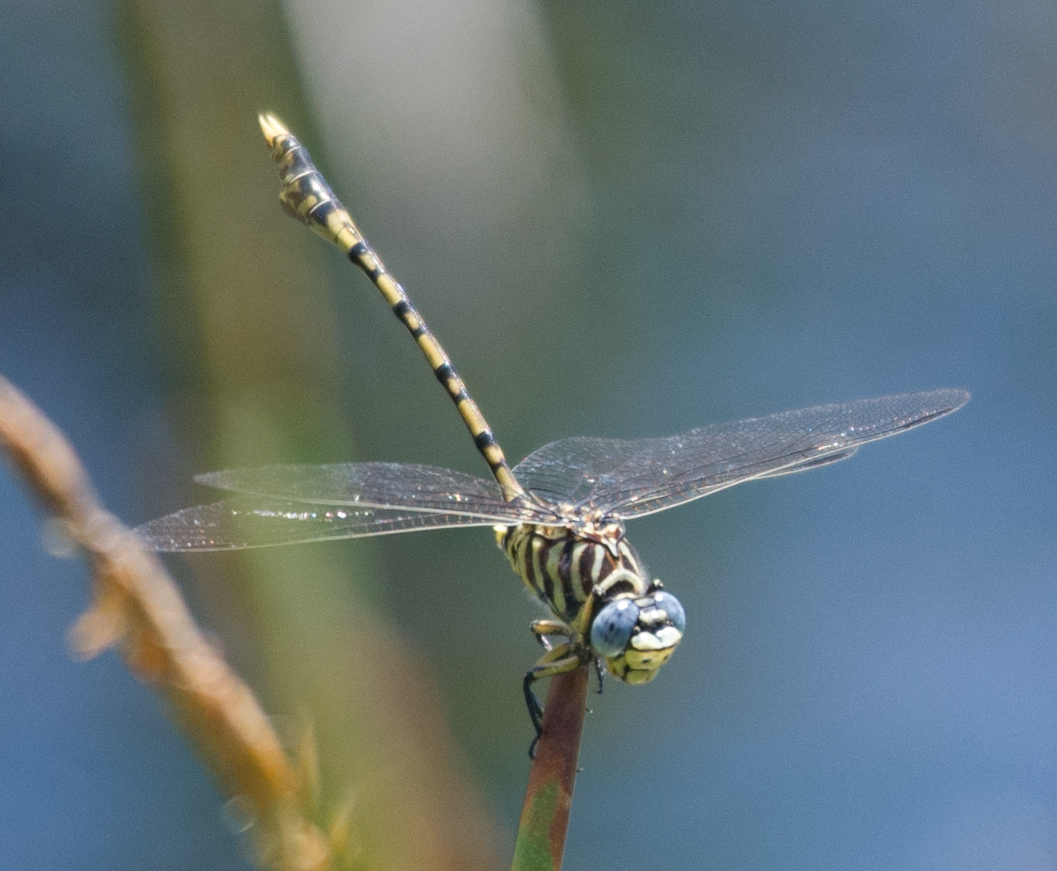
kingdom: Animalia
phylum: Arthropoda
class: Insecta
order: Odonata
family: Gomphidae
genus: Ictinogomphus
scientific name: Ictinogomphus dundoensis
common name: Swamp tigertail
